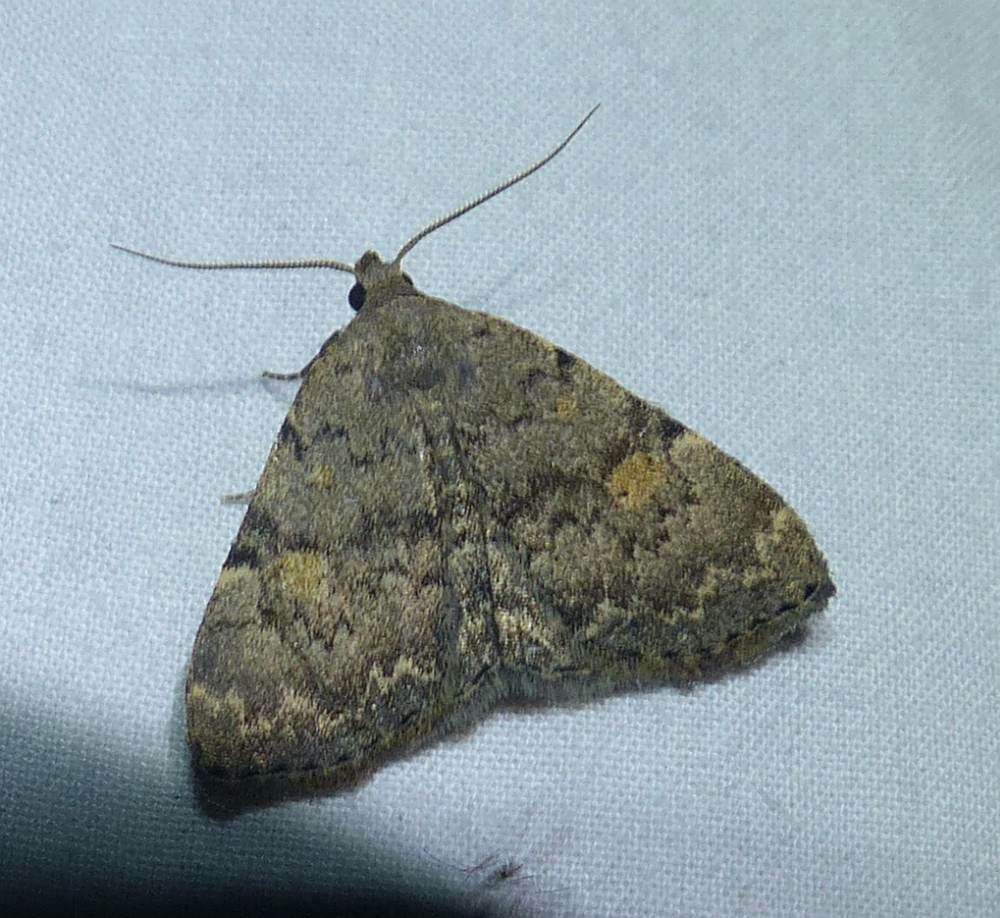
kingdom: Animalia
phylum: Arthropoda
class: Insecta
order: Lepidoptera
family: Erebidae
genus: Idia
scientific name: Idia aemula
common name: Common idia moth
